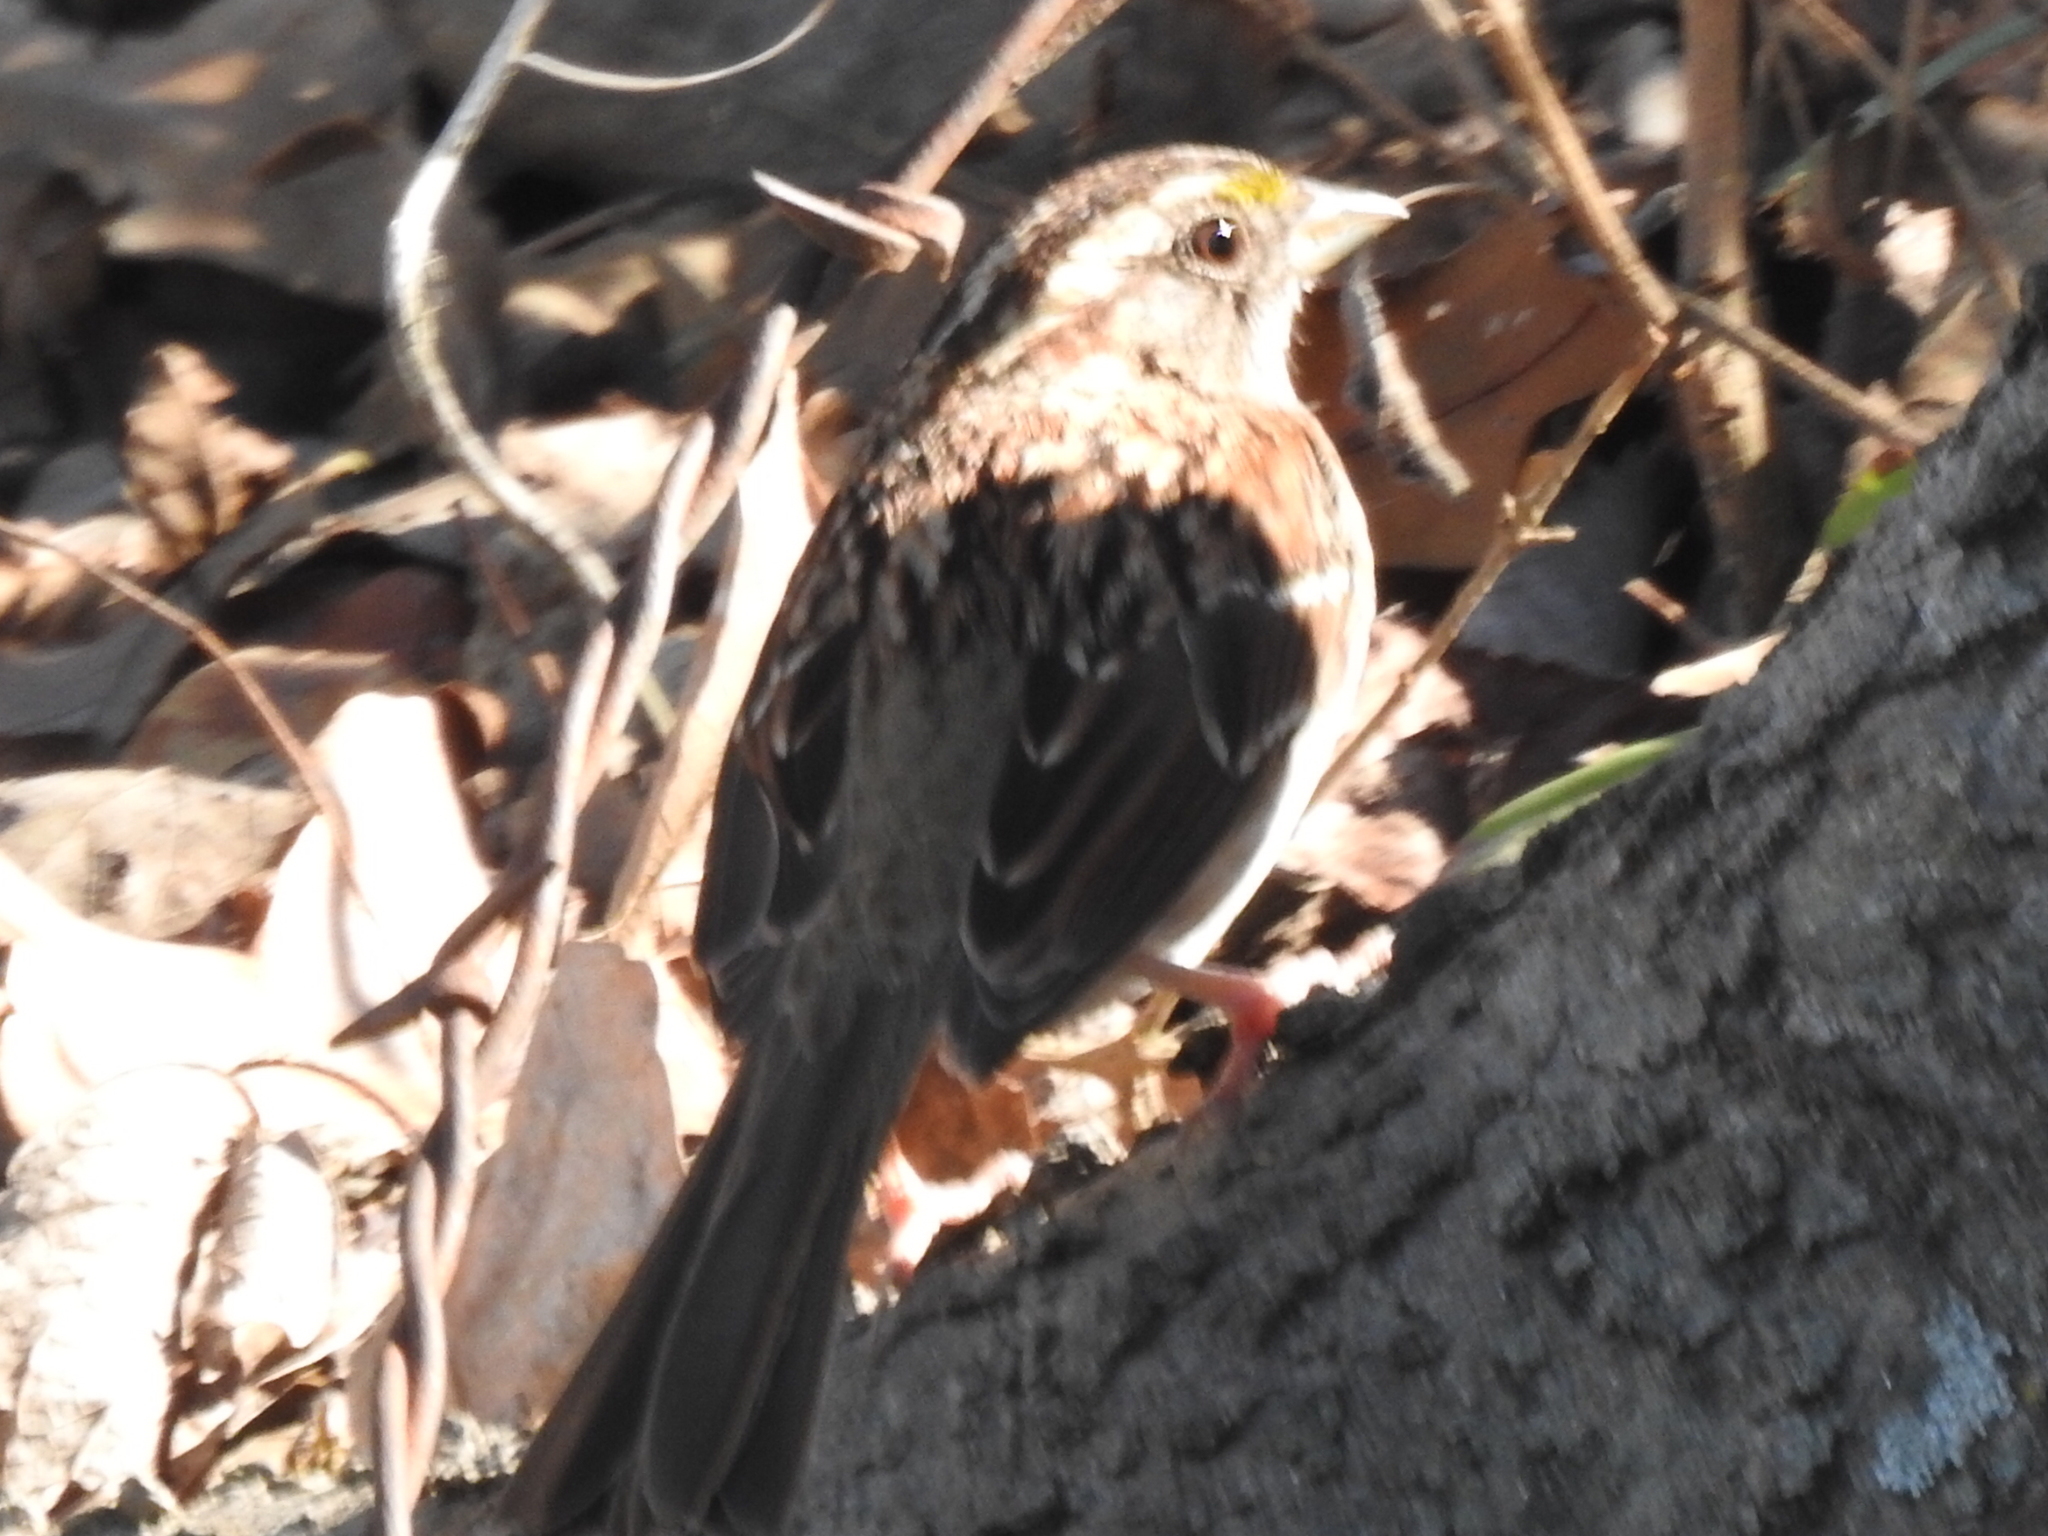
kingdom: Animalia
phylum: Chordata
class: Aves
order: Passeriformes
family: Passerellidae
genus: Zonotrichia
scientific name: Zonotrichia albicollis
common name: White-throated sparrow
